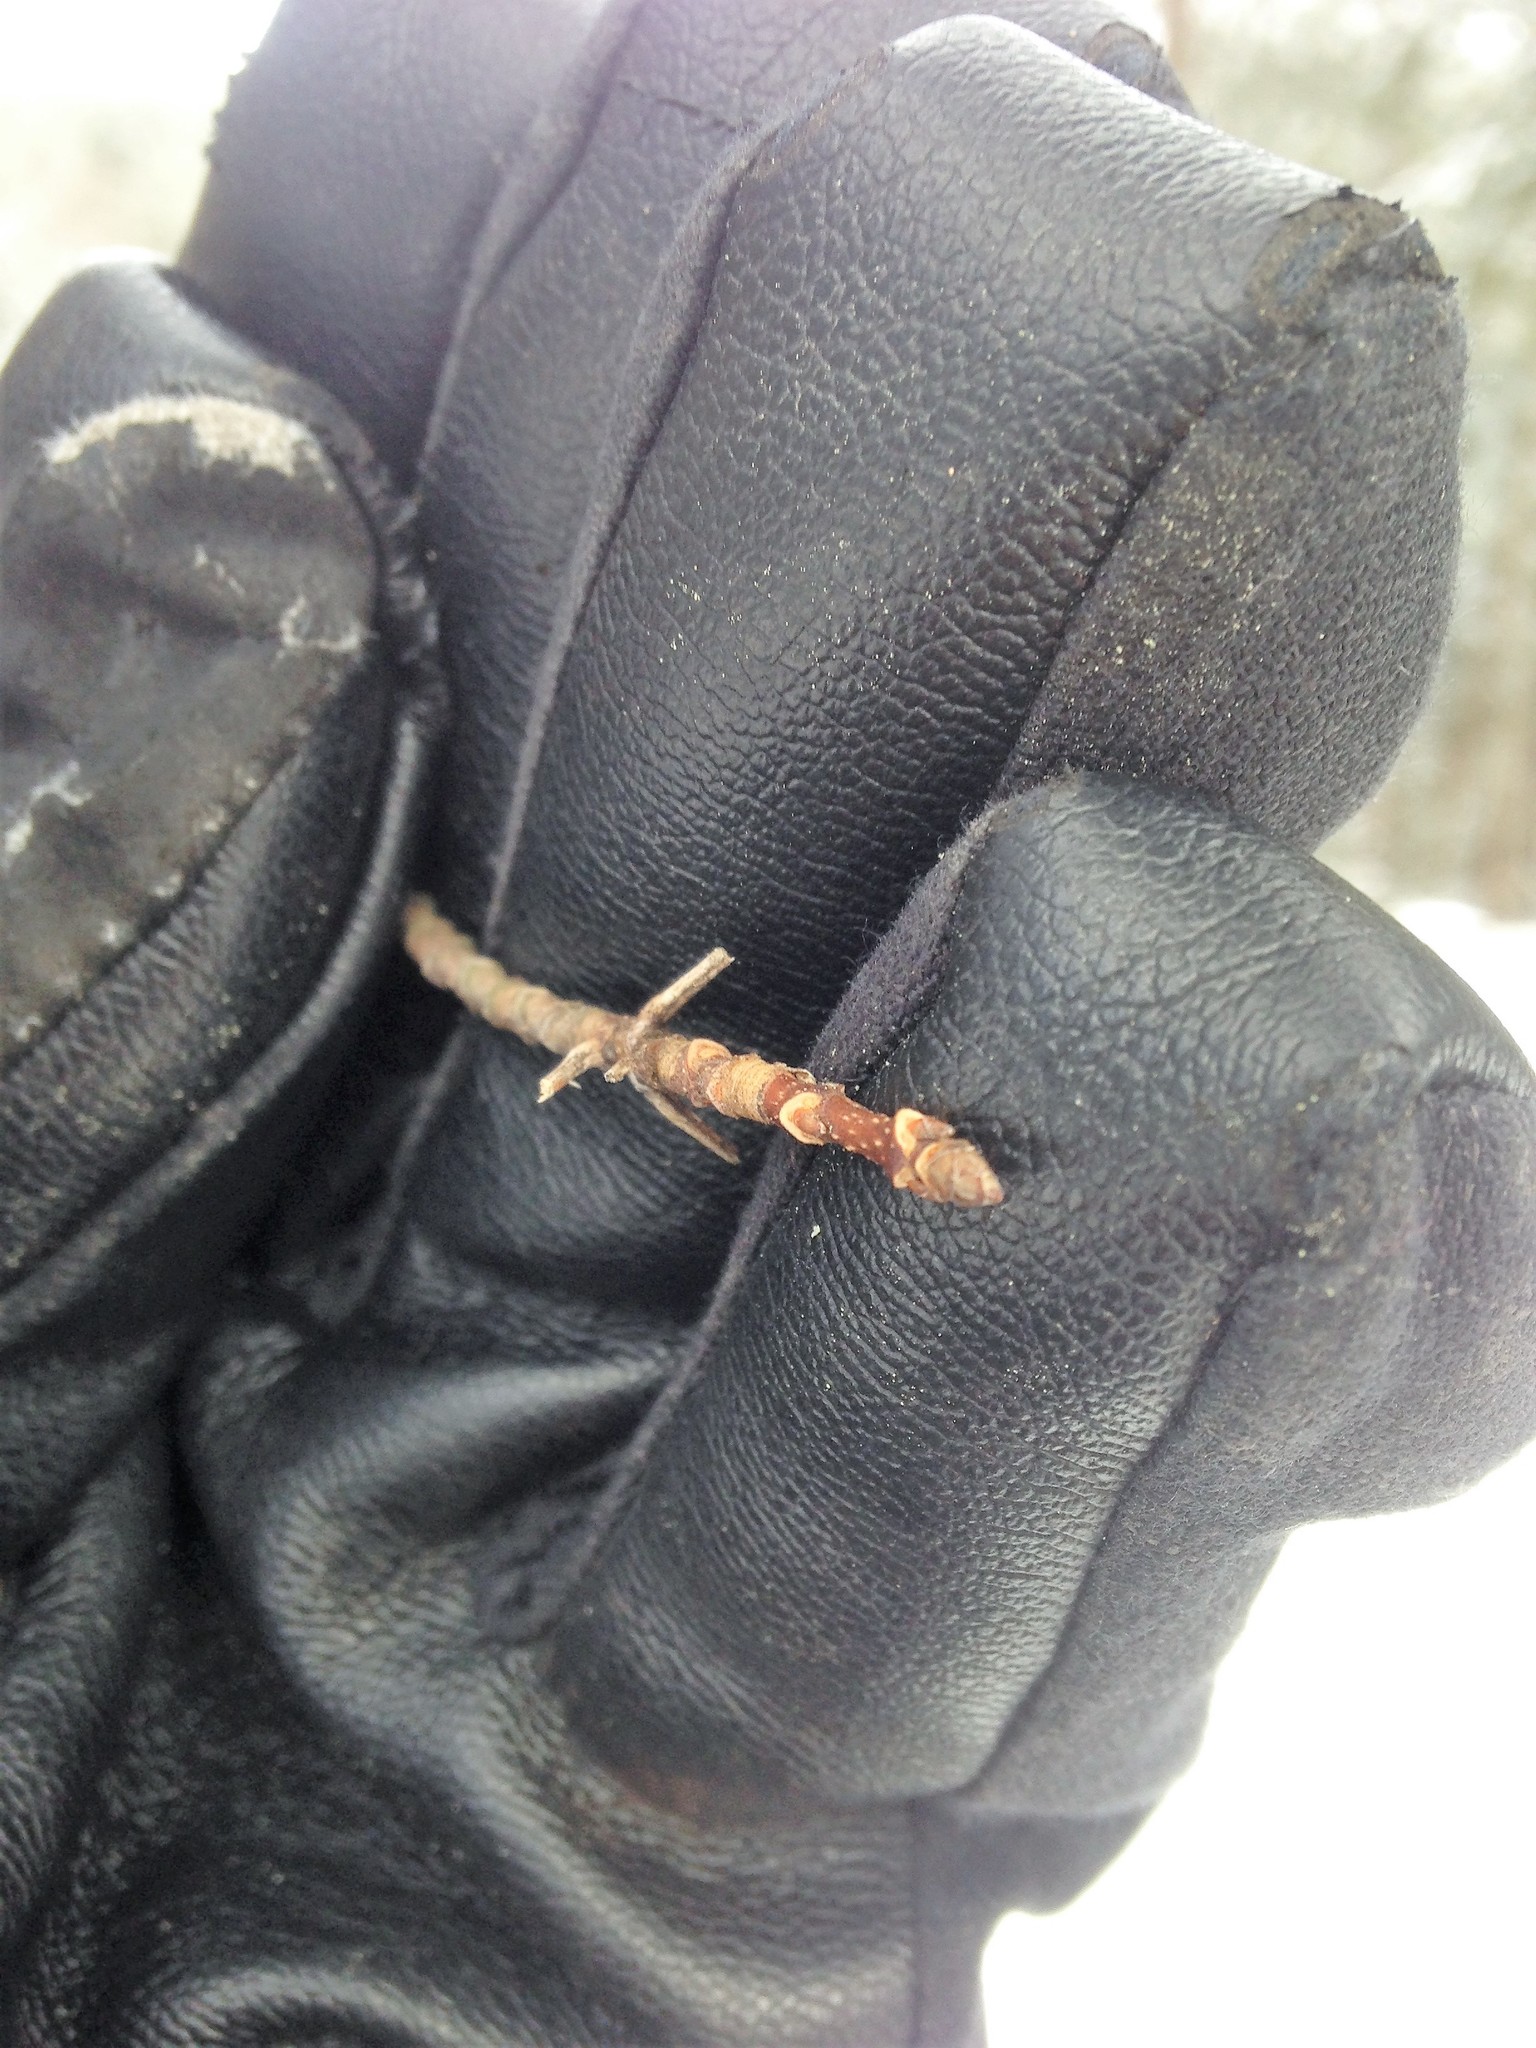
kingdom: Plantae
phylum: Tracheophyta
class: Magnoliopsida
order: Sapindales
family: Sapindaceae
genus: Acer
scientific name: Acer saccharum
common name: Sugar maple
